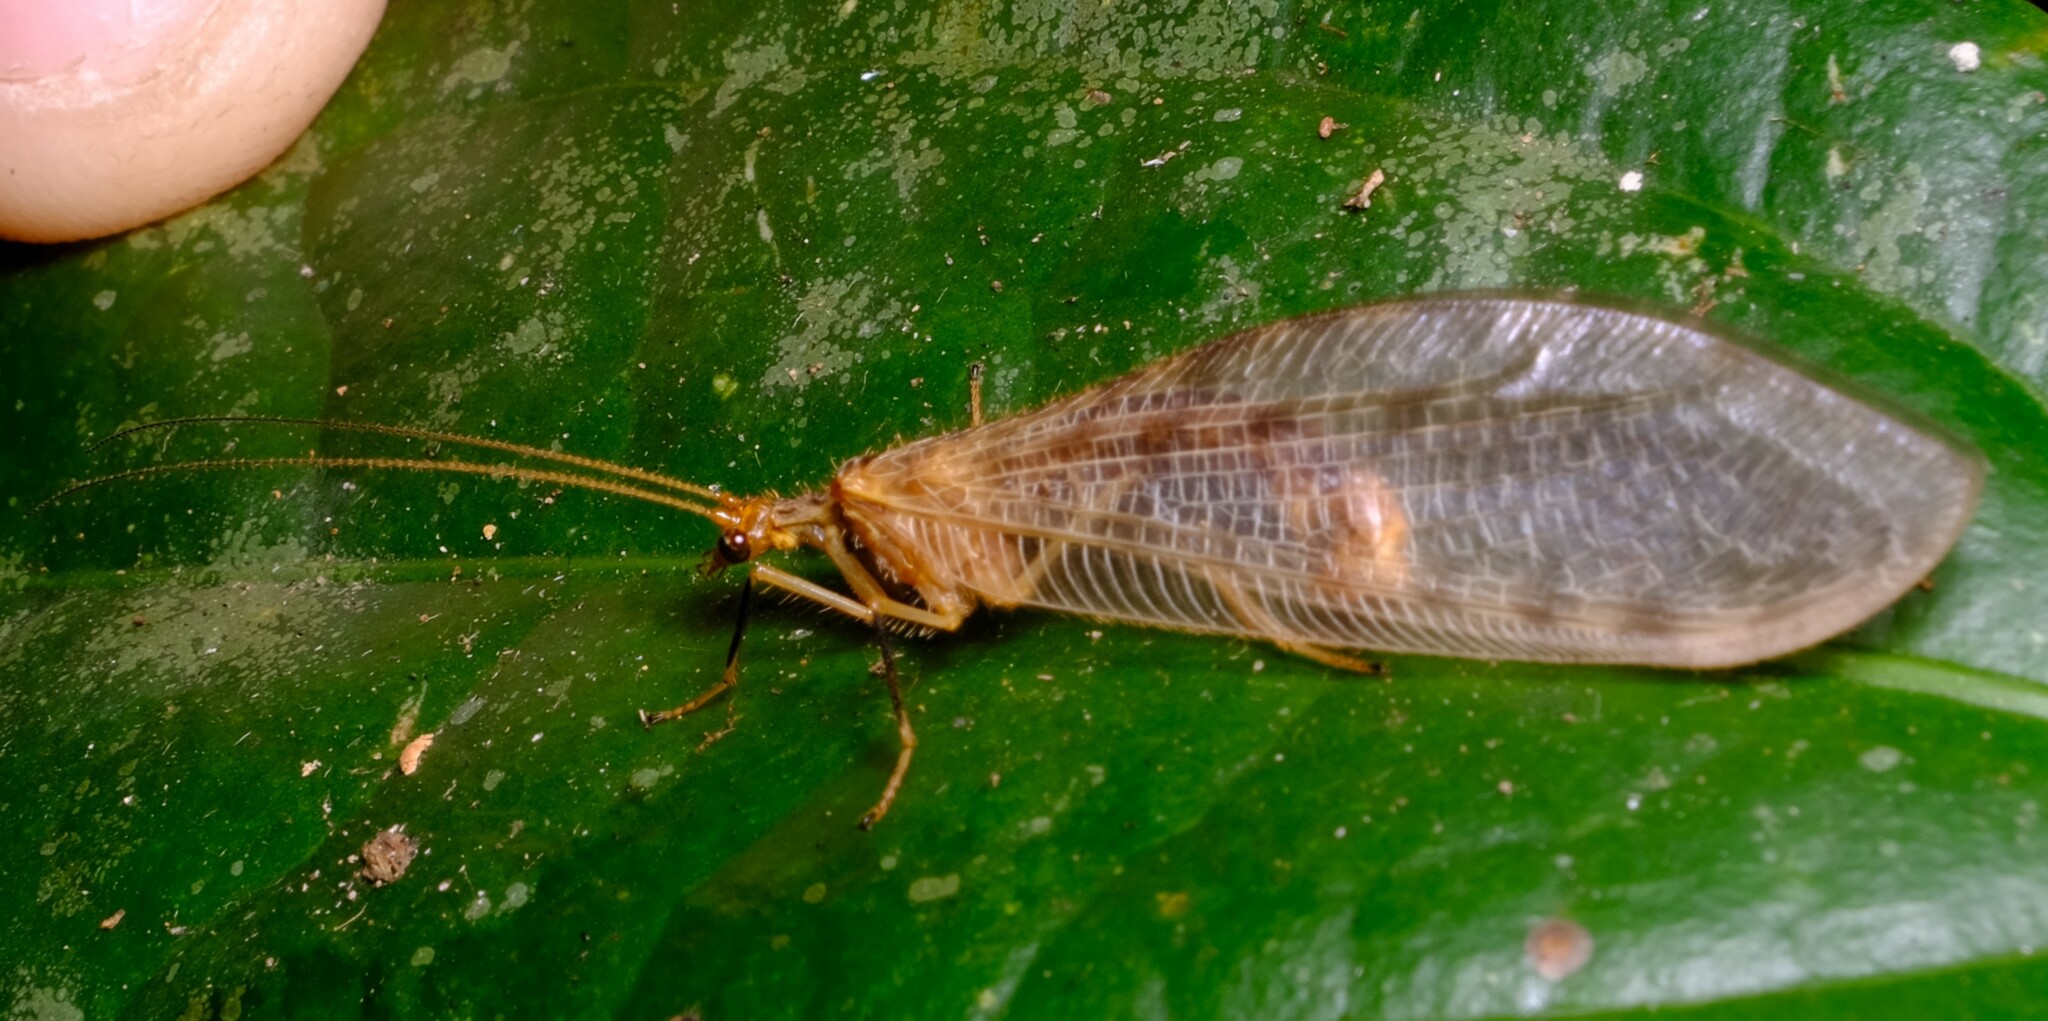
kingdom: Animalia
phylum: Arthropoda
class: Insecta
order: Neuroptera
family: Osmylidae
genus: Stenolysmus
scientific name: Stenolysmus extraneus
